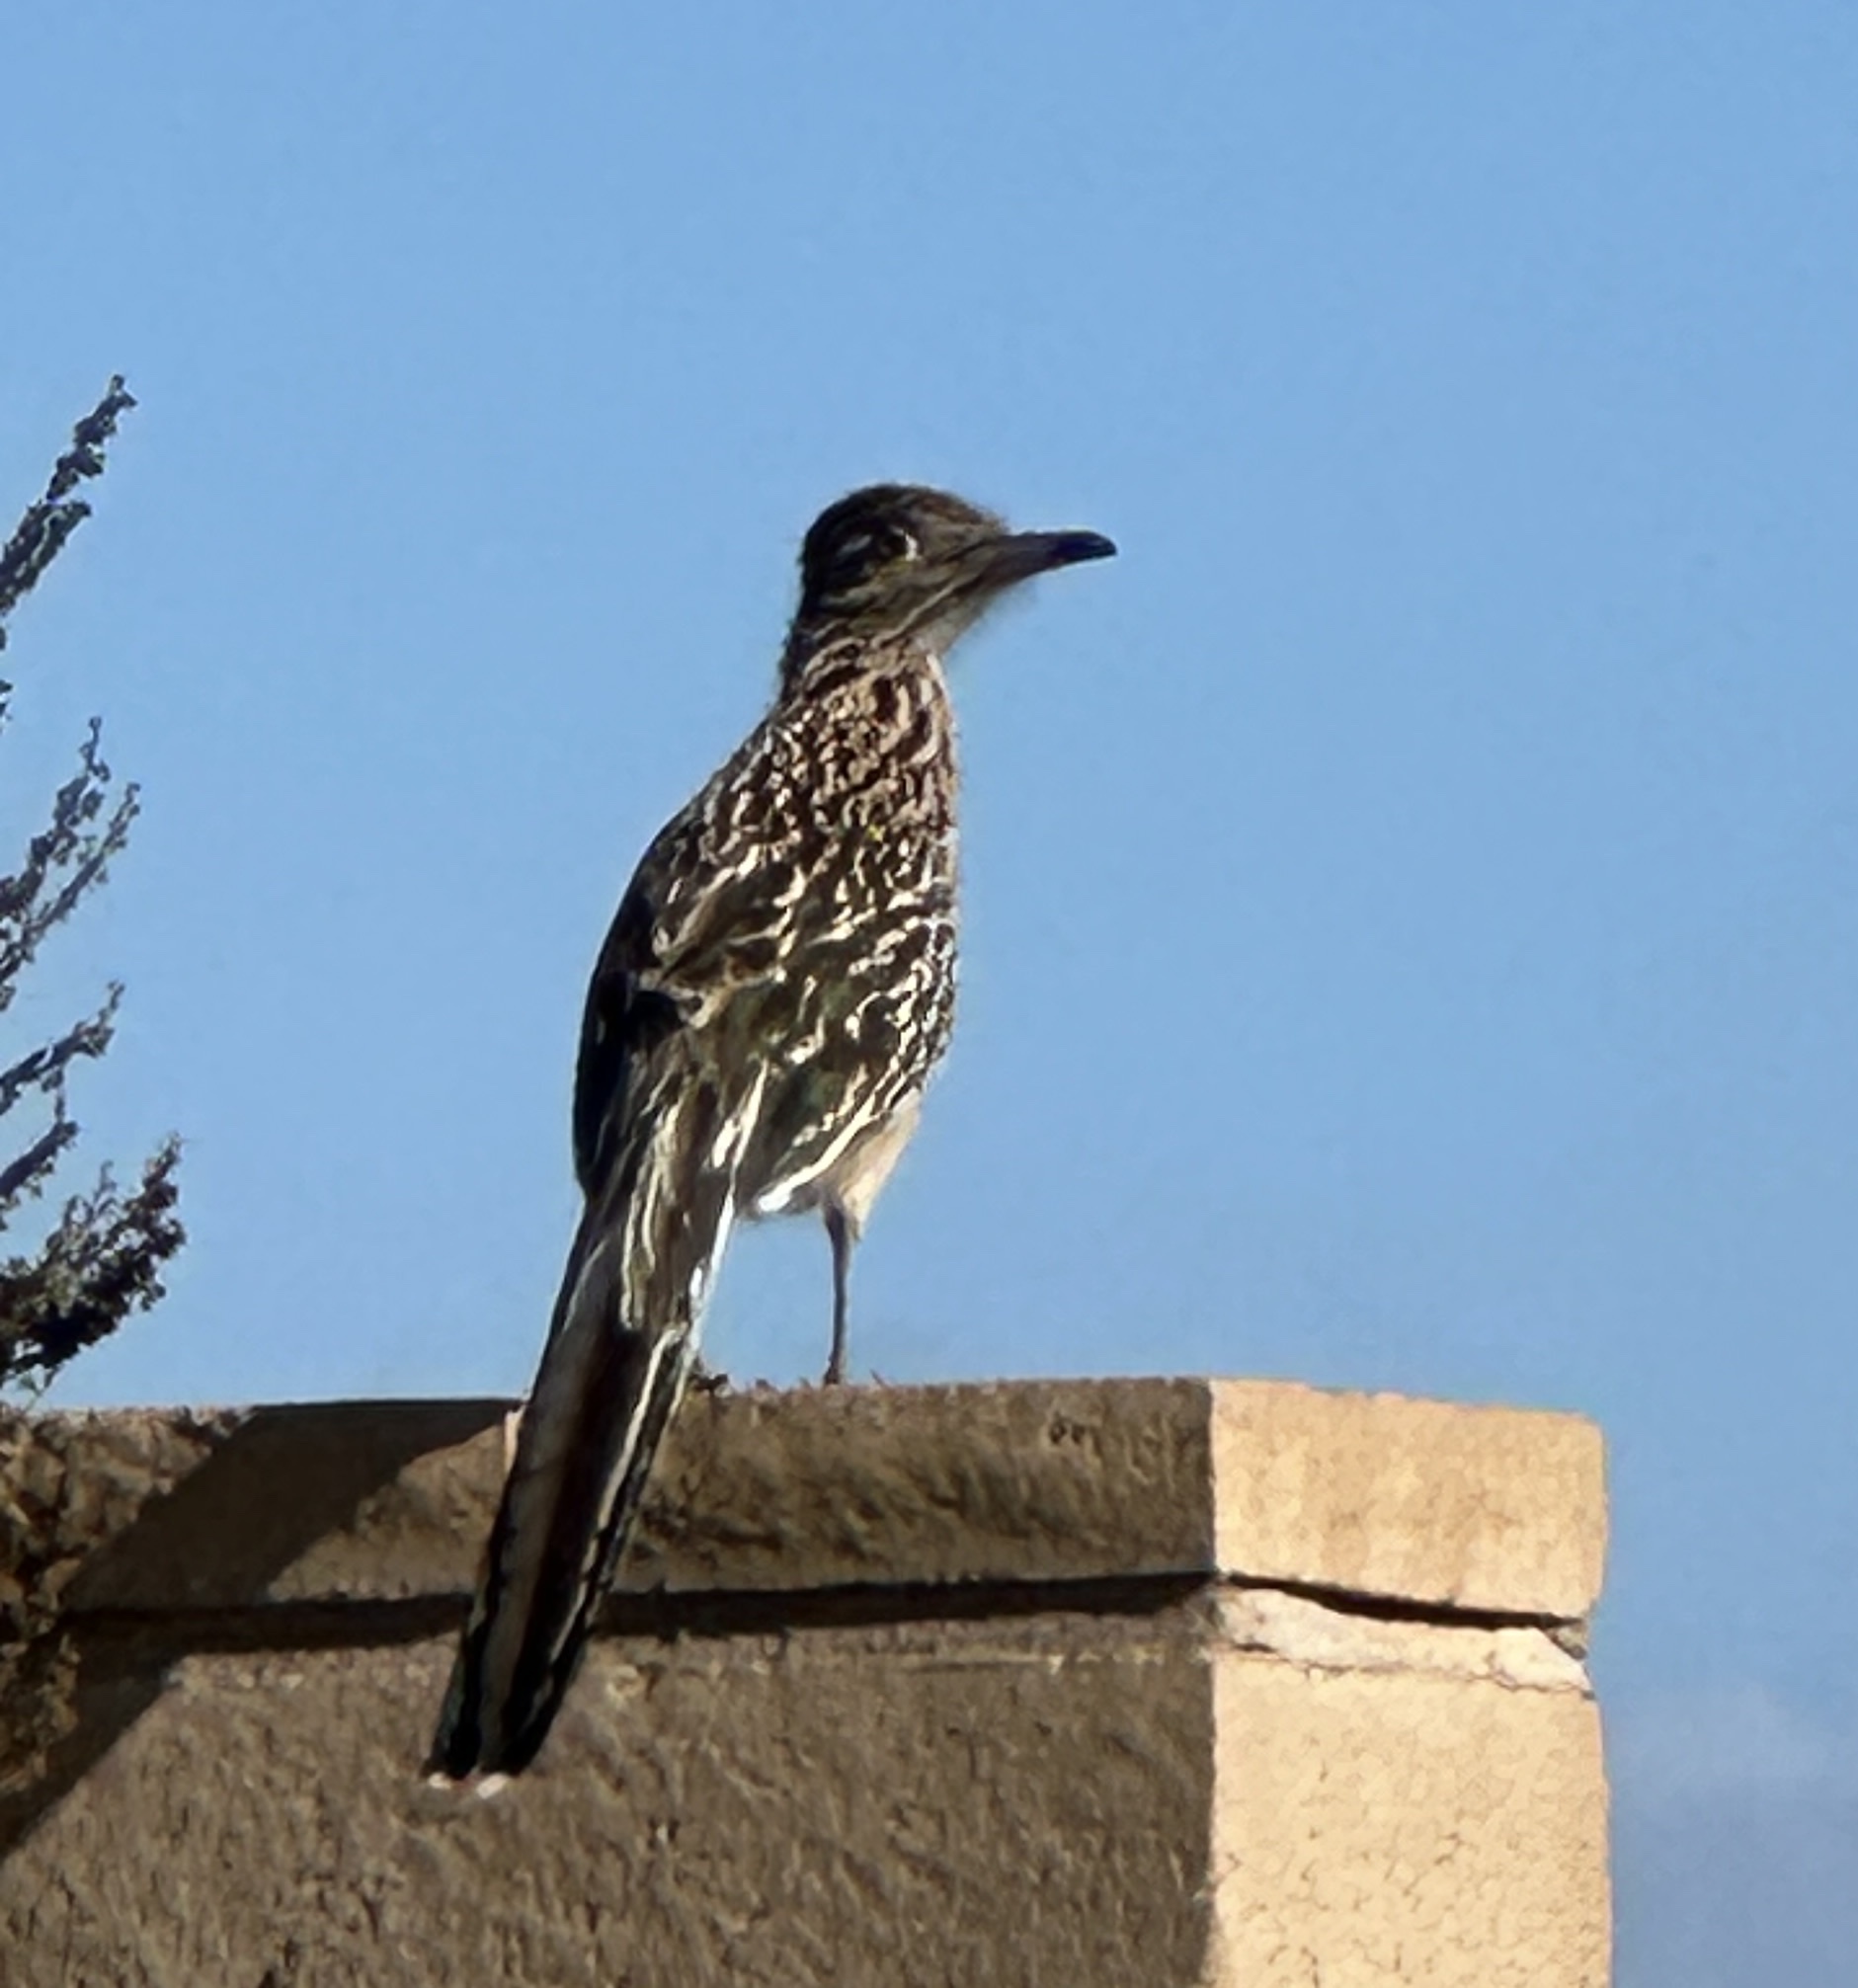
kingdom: Animalia
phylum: Chordata
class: Aves
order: Cuculiformes
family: Cuculidae
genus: Geococcyx
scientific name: Geococcyx californianus
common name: Greater roadrunner
